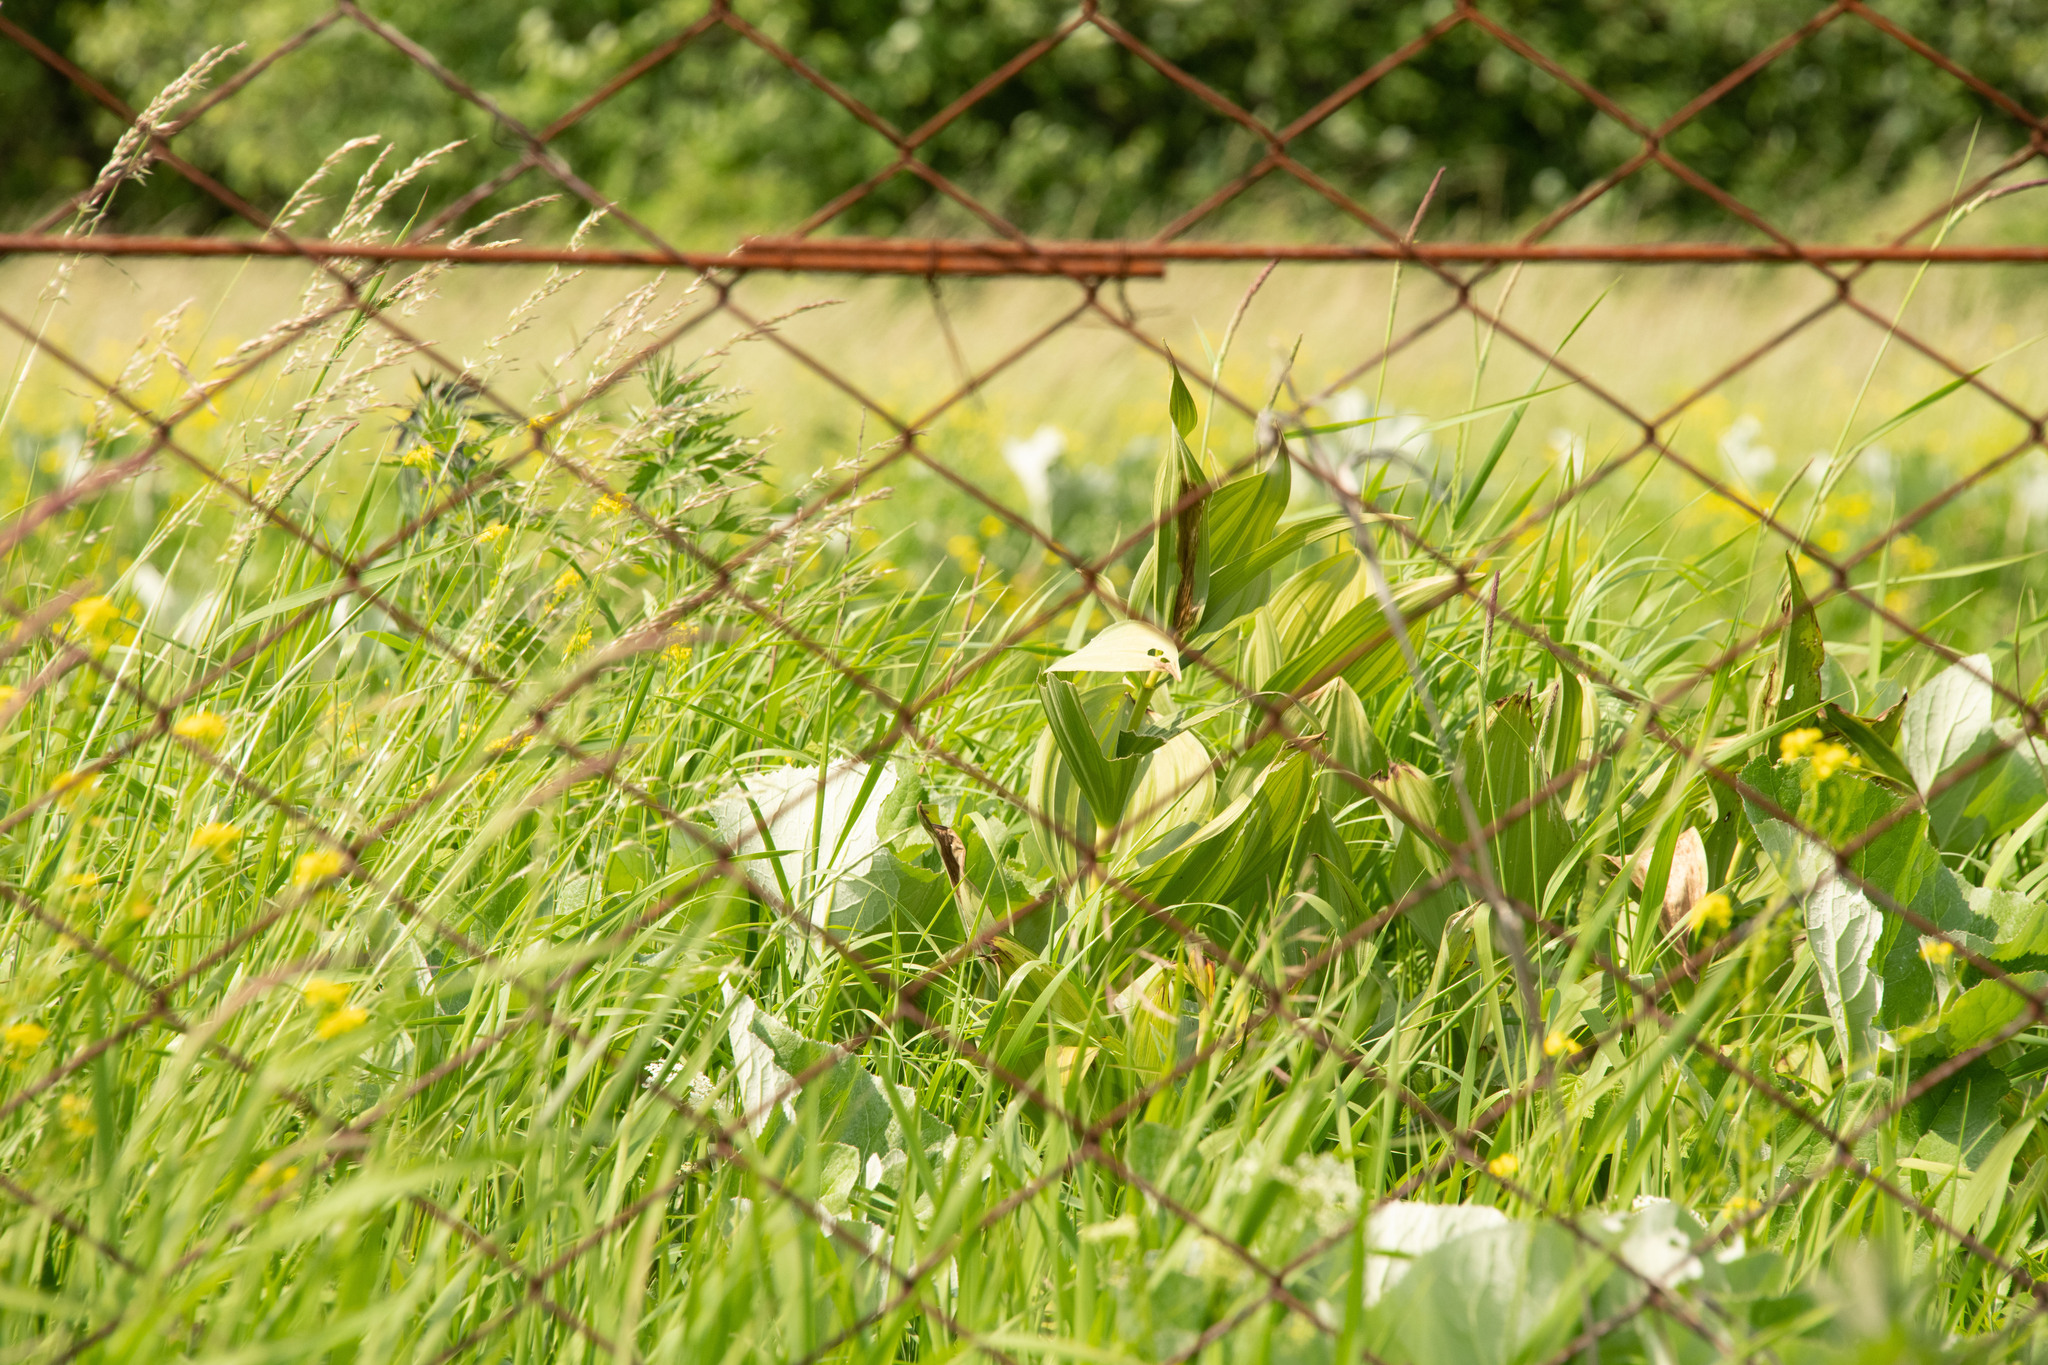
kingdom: Plantae
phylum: Tracheophyta
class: Liliopsida
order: Liliales
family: Melanthiaceae
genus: Veratrum
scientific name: Veratrum lobelianum
